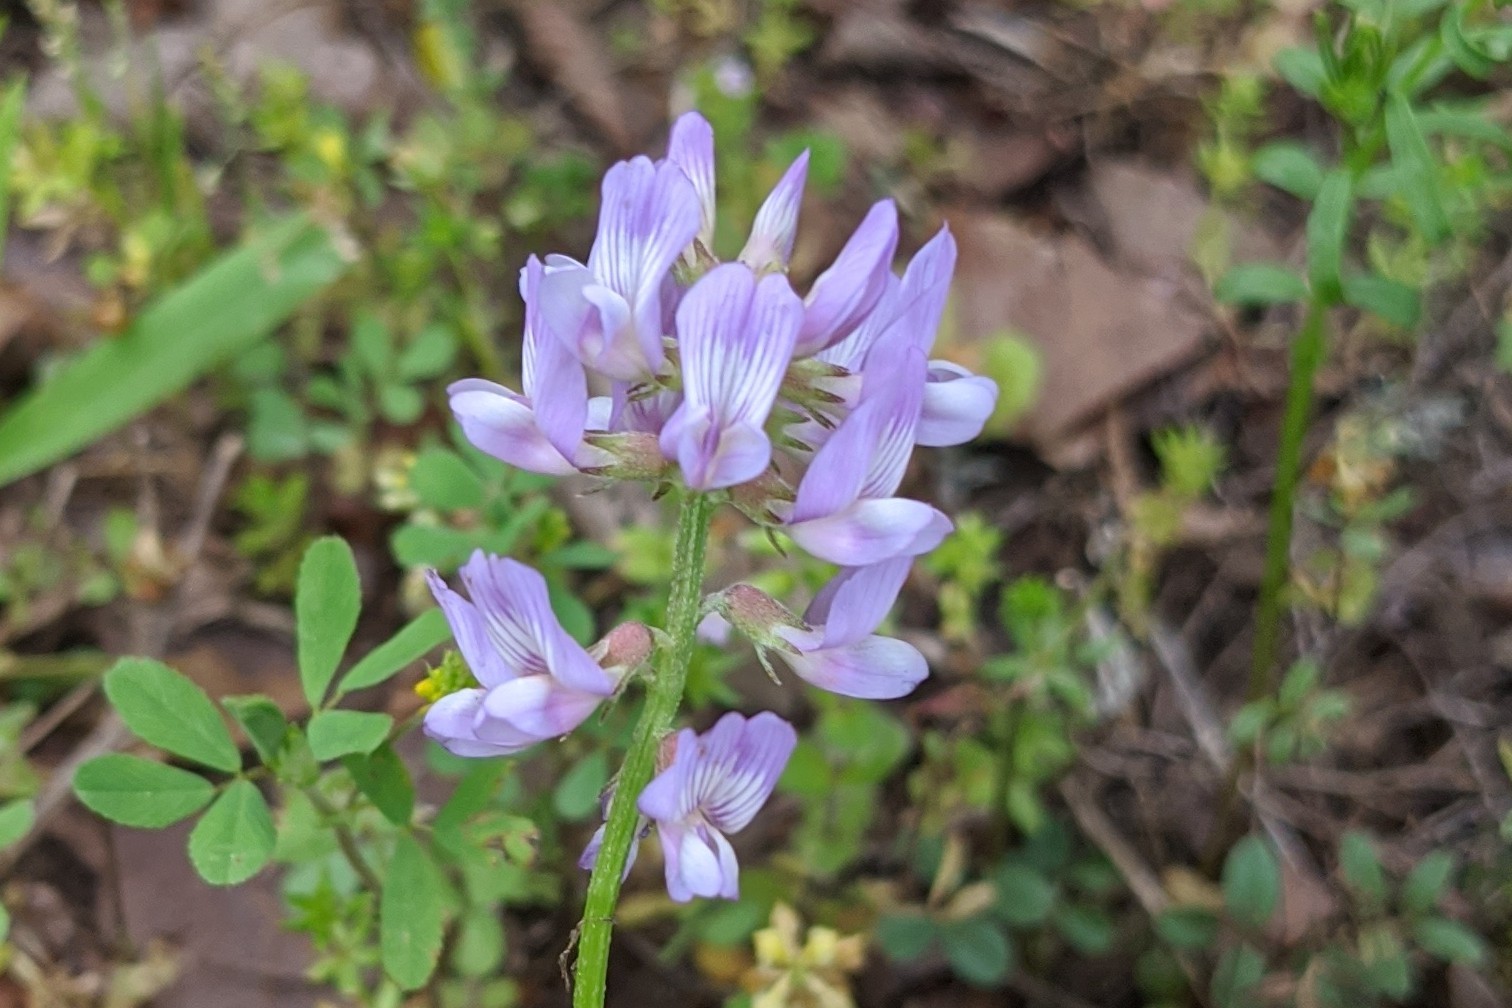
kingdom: Plantae
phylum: Tracheophyta
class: Magnoliopsida
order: Fabales
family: Fabaceae
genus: Astragalus
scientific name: Astragalus distortus
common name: Ozark milk-vetch
